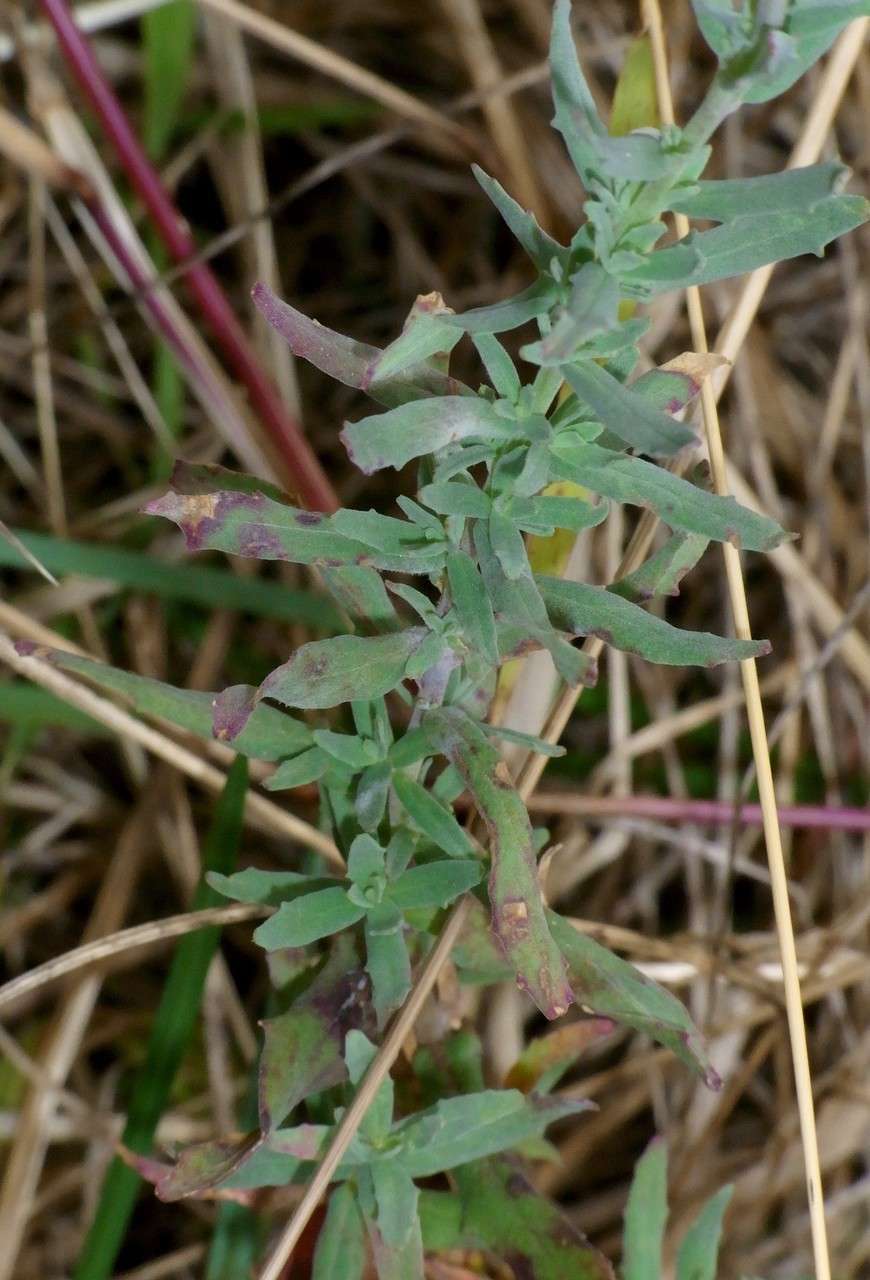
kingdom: Plantae
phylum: Tracheophyta
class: Magnoliopsida
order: Myrtales
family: Onagraceae
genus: Epilobium
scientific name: Epilobium billardierianum
